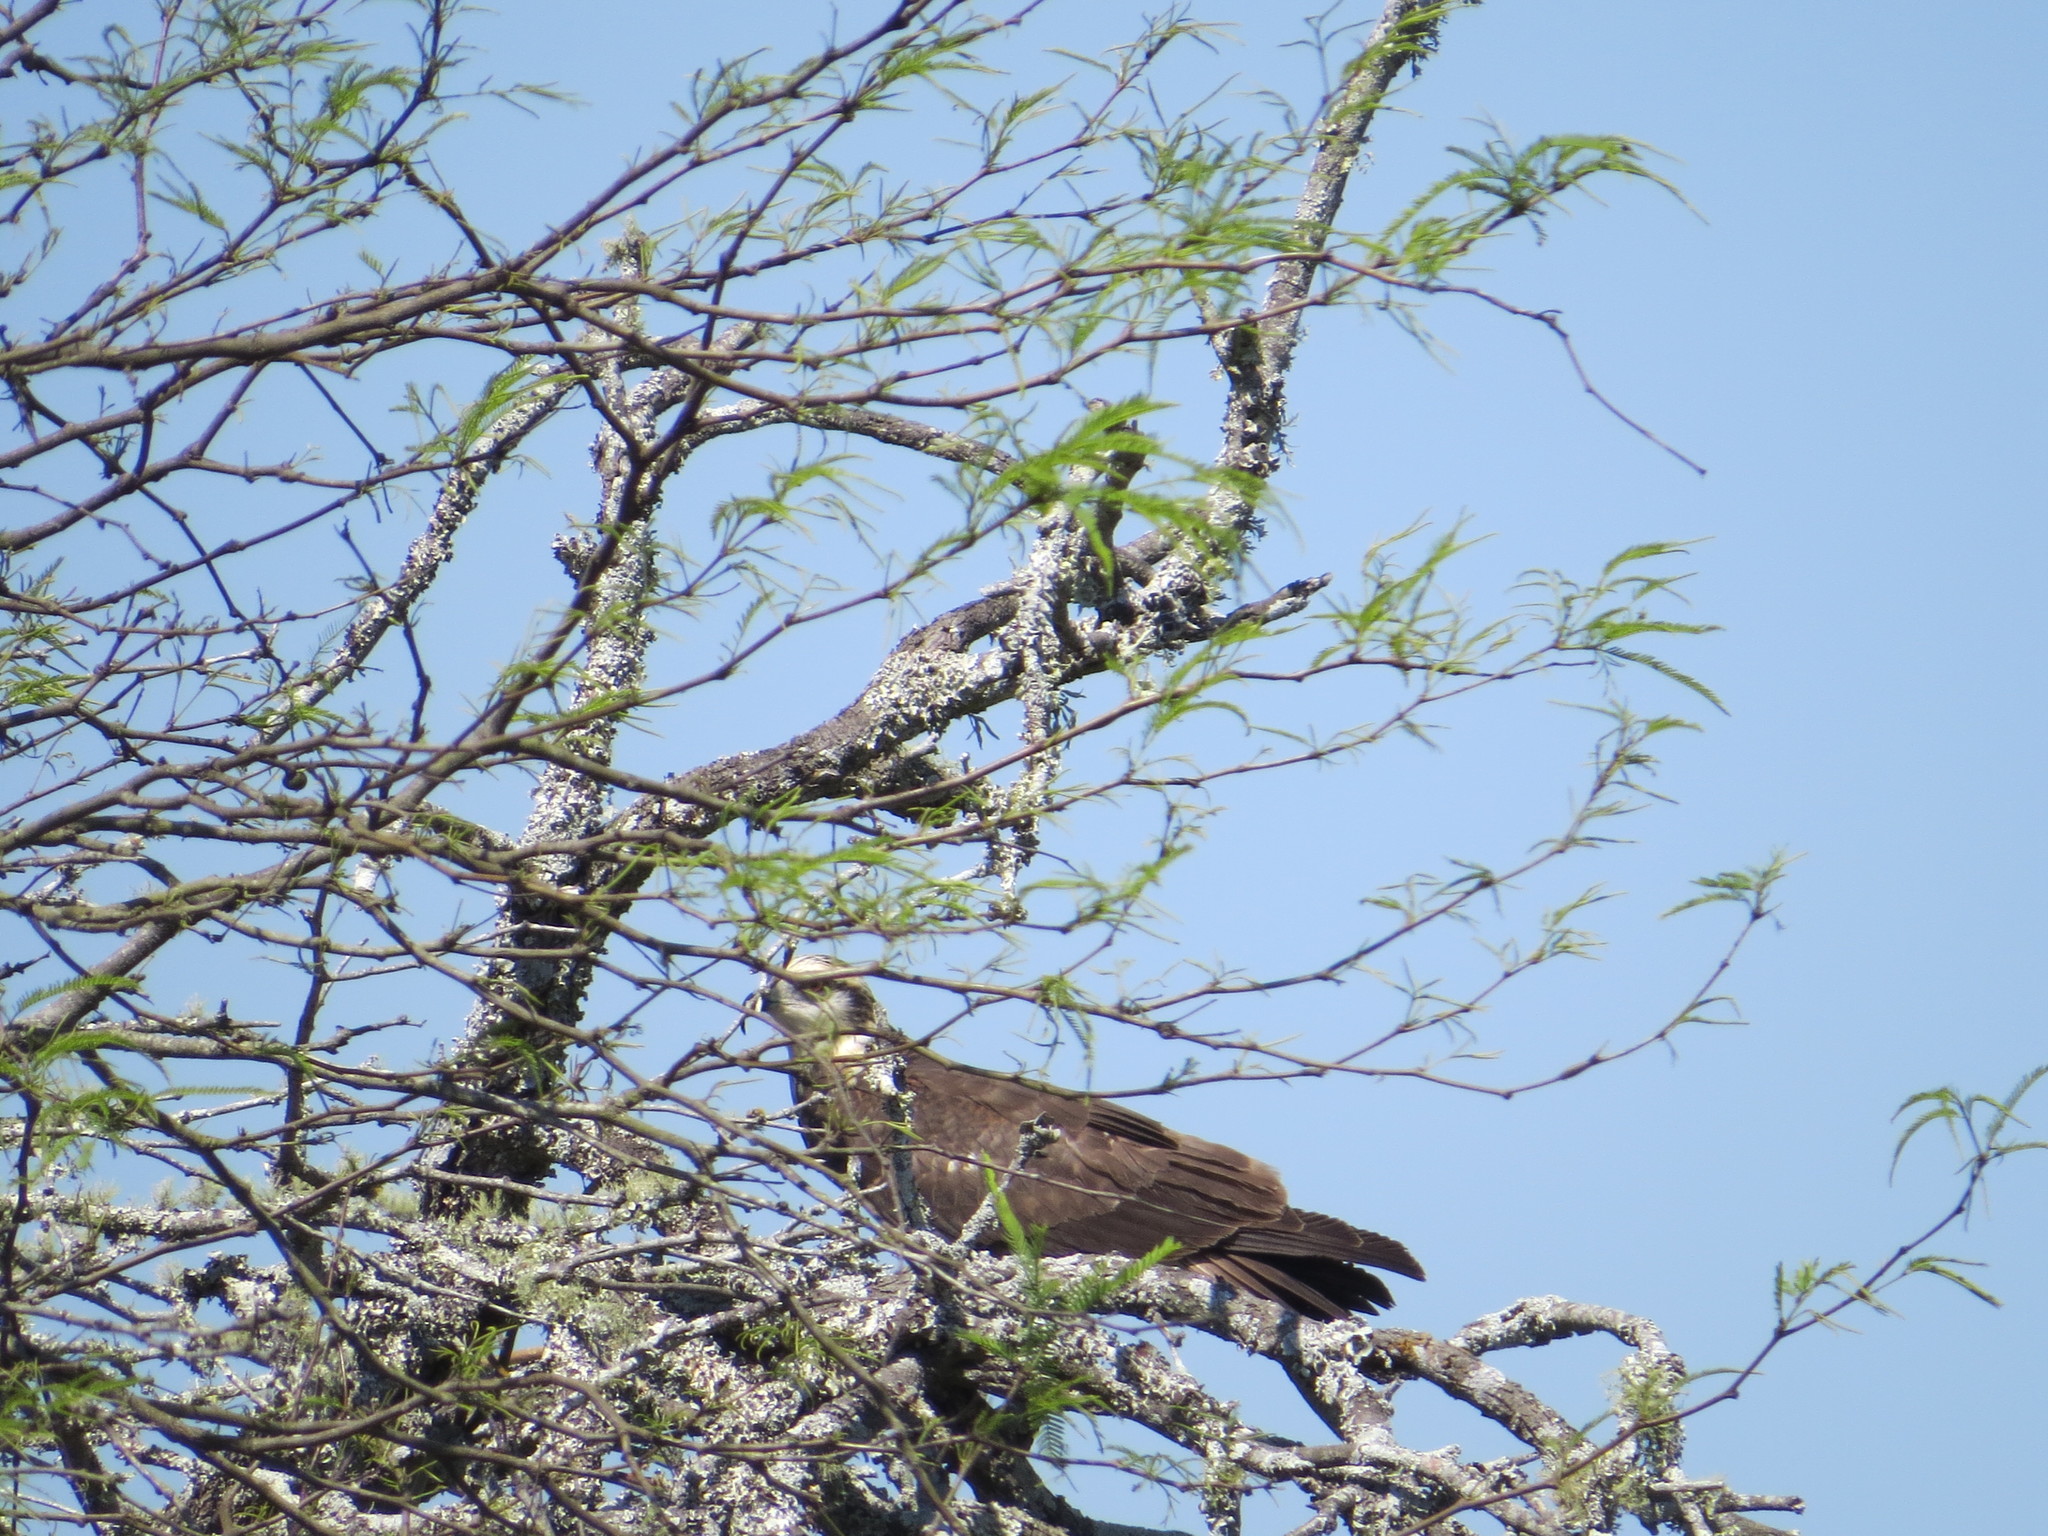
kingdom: Animalia
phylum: Chordata
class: Aves
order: Accipitriformes
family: Accipitridae
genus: Rostrhamus
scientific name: Rostrhamus sociabilis
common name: Snail kite
